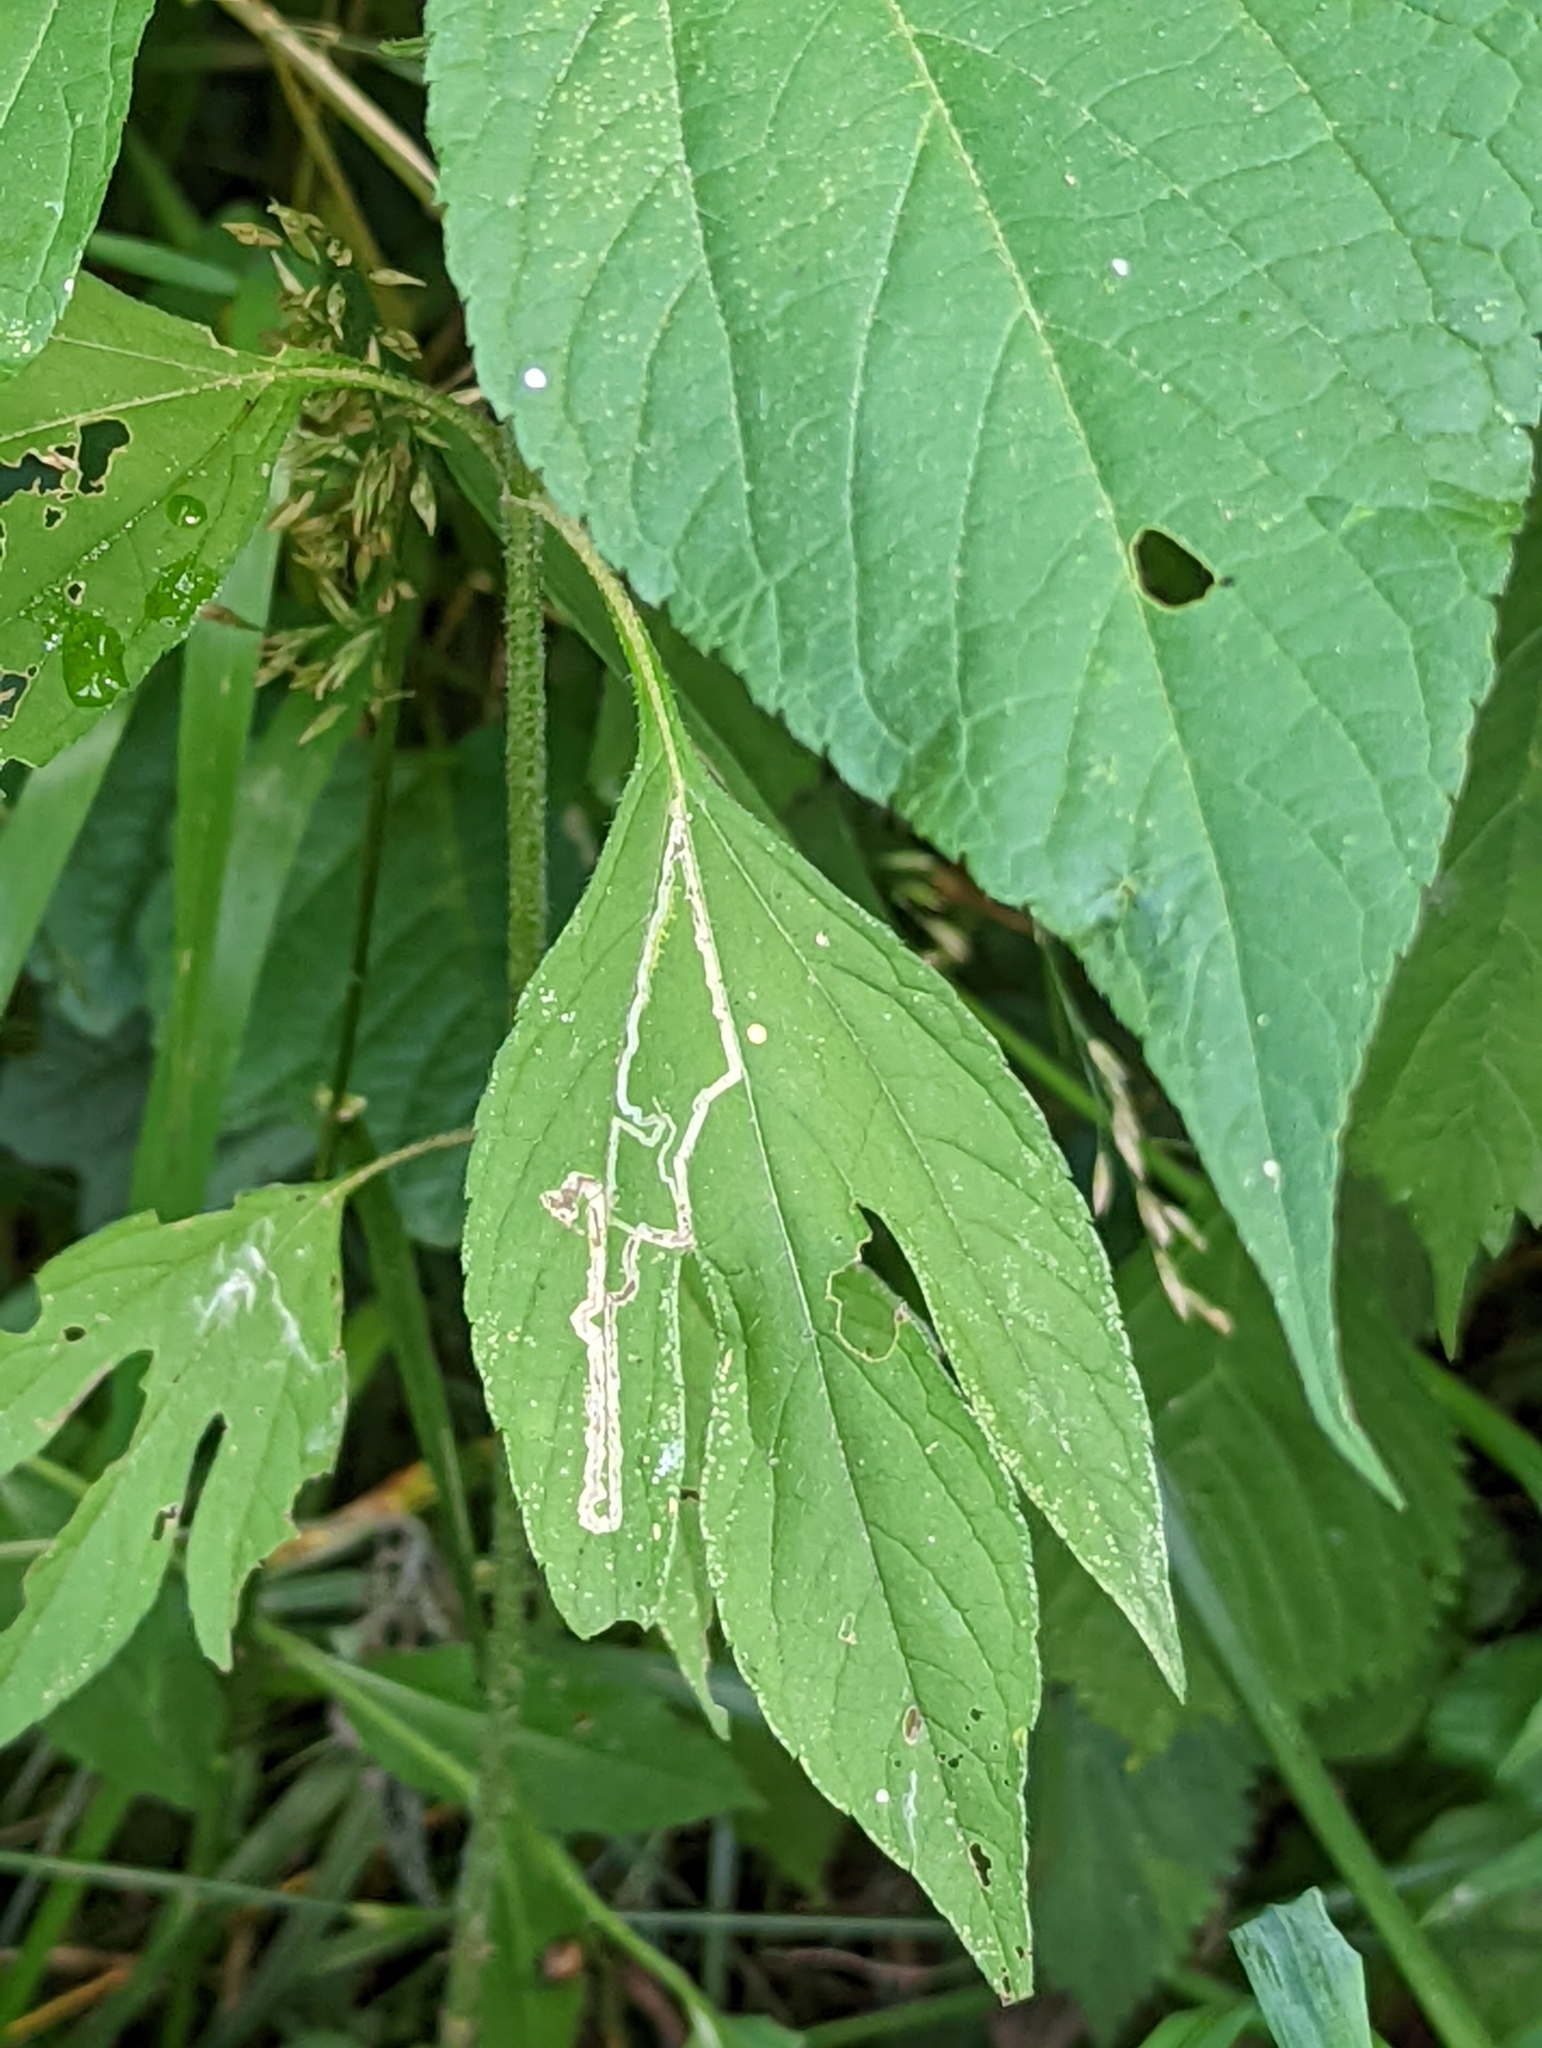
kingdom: Plantae
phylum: Tracheophyta
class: Magnoliopsida
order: Asterales
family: Asteraceae
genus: Ambrosia
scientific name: Ambrosia trifida
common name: Giant ragweed
